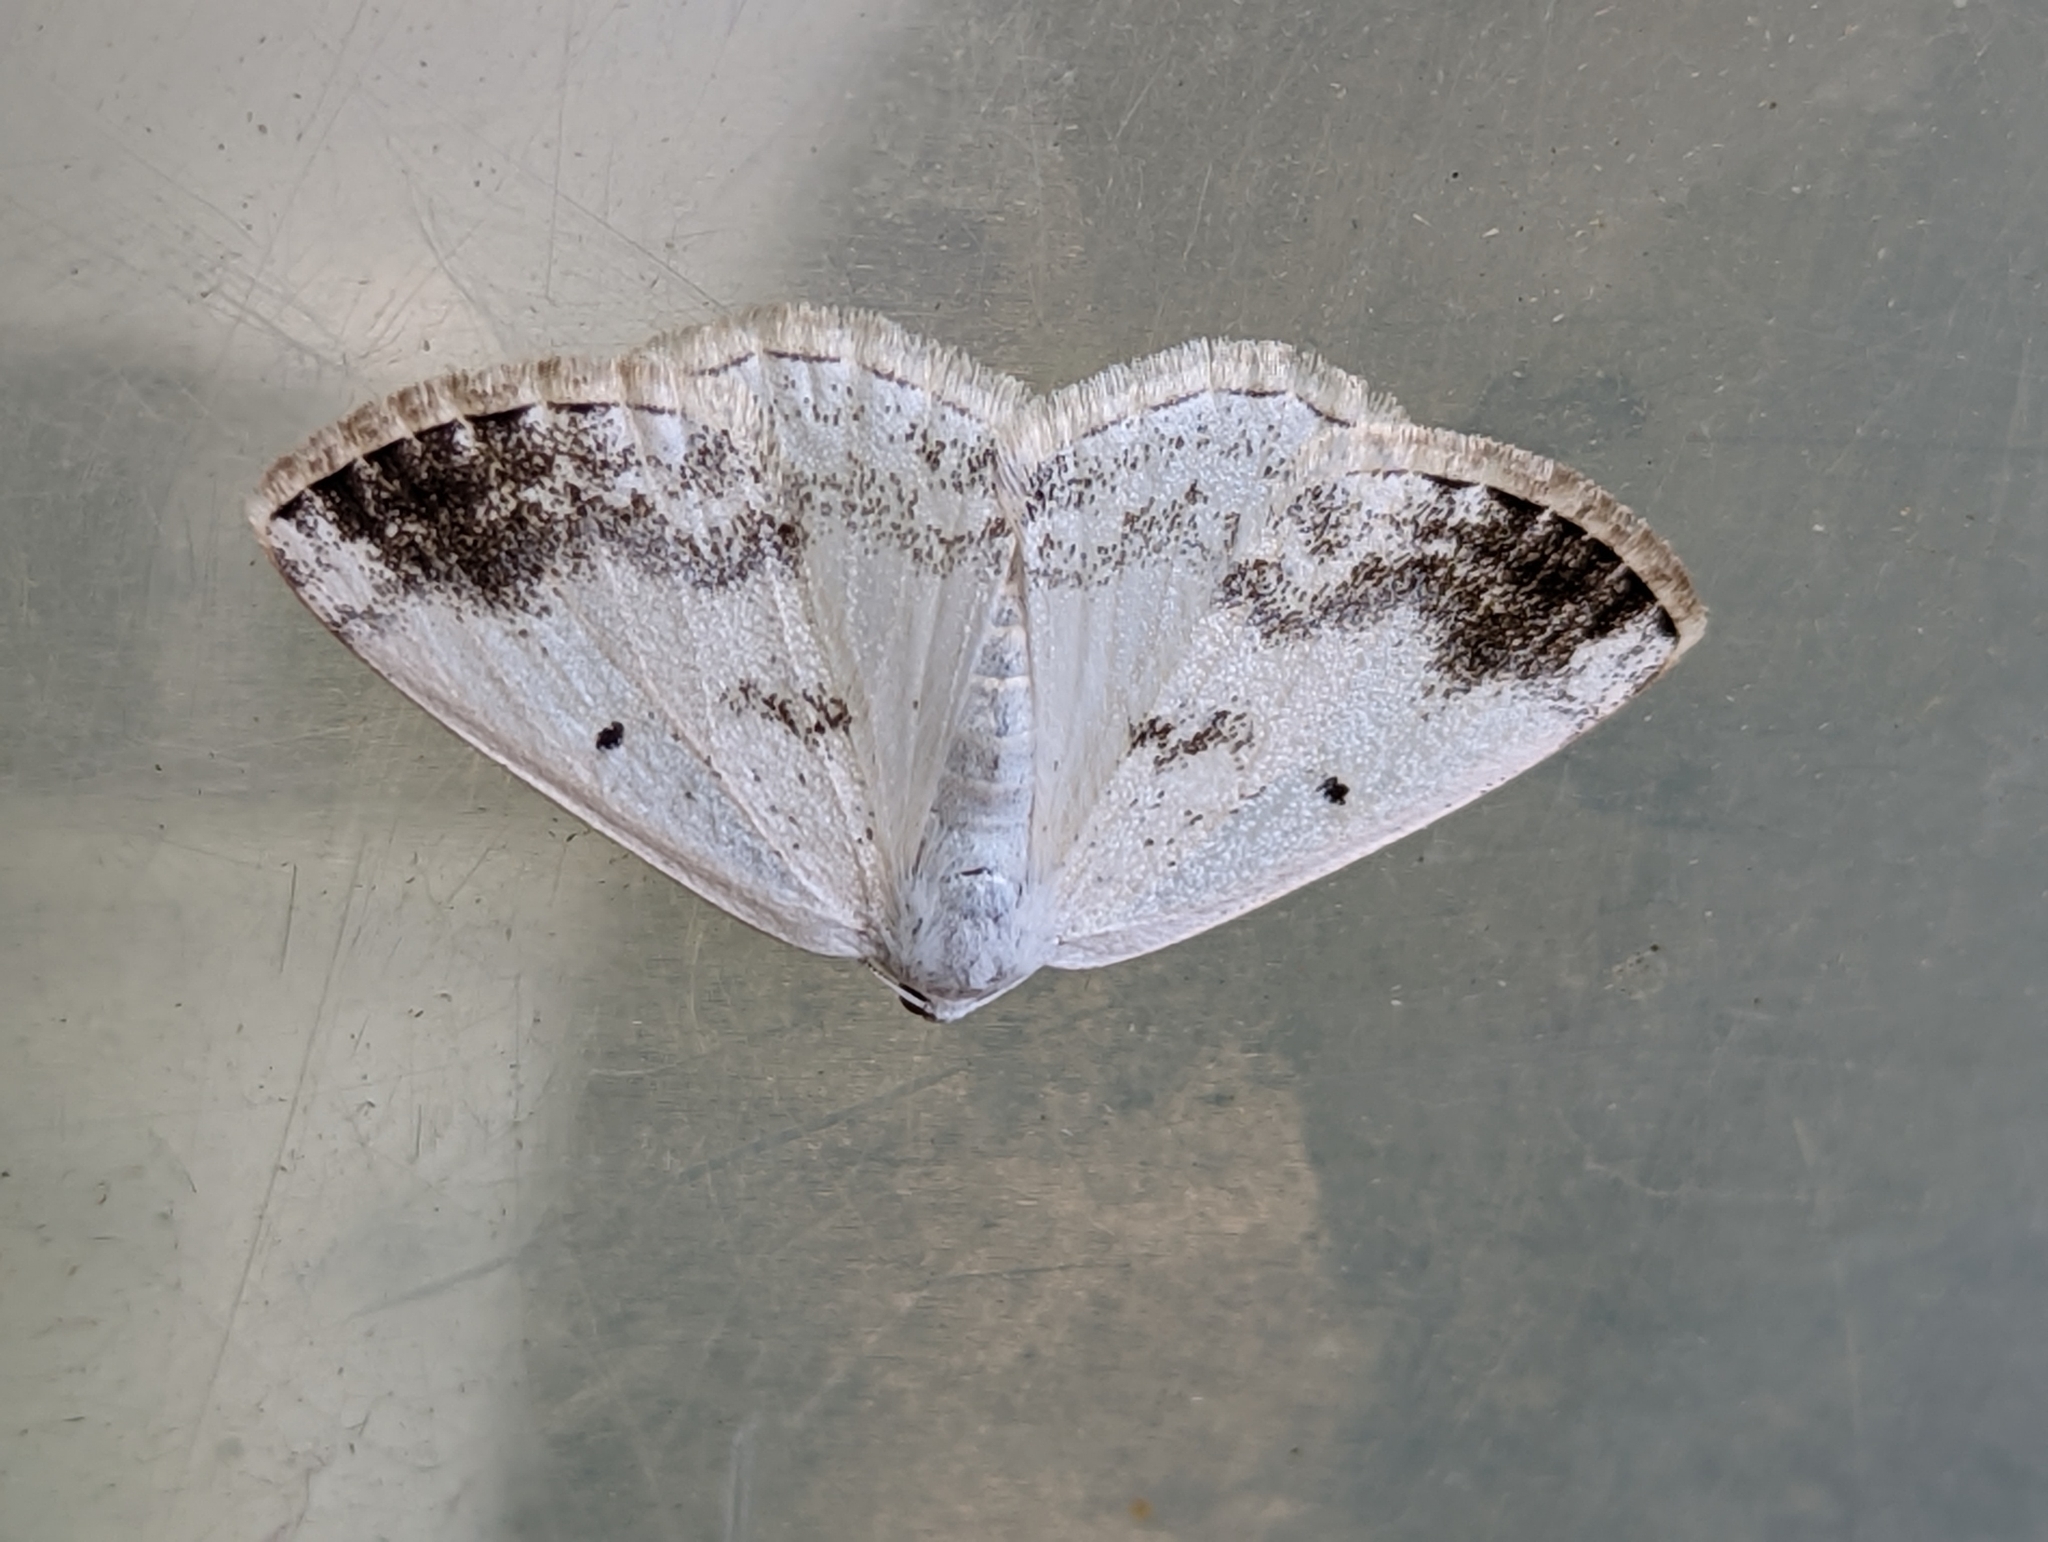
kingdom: Animalia
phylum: Arthropoda
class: Insecta
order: Lepidoptera
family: Geometridae
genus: Lomographa
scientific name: Lomographa temerata
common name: Clouded silver
